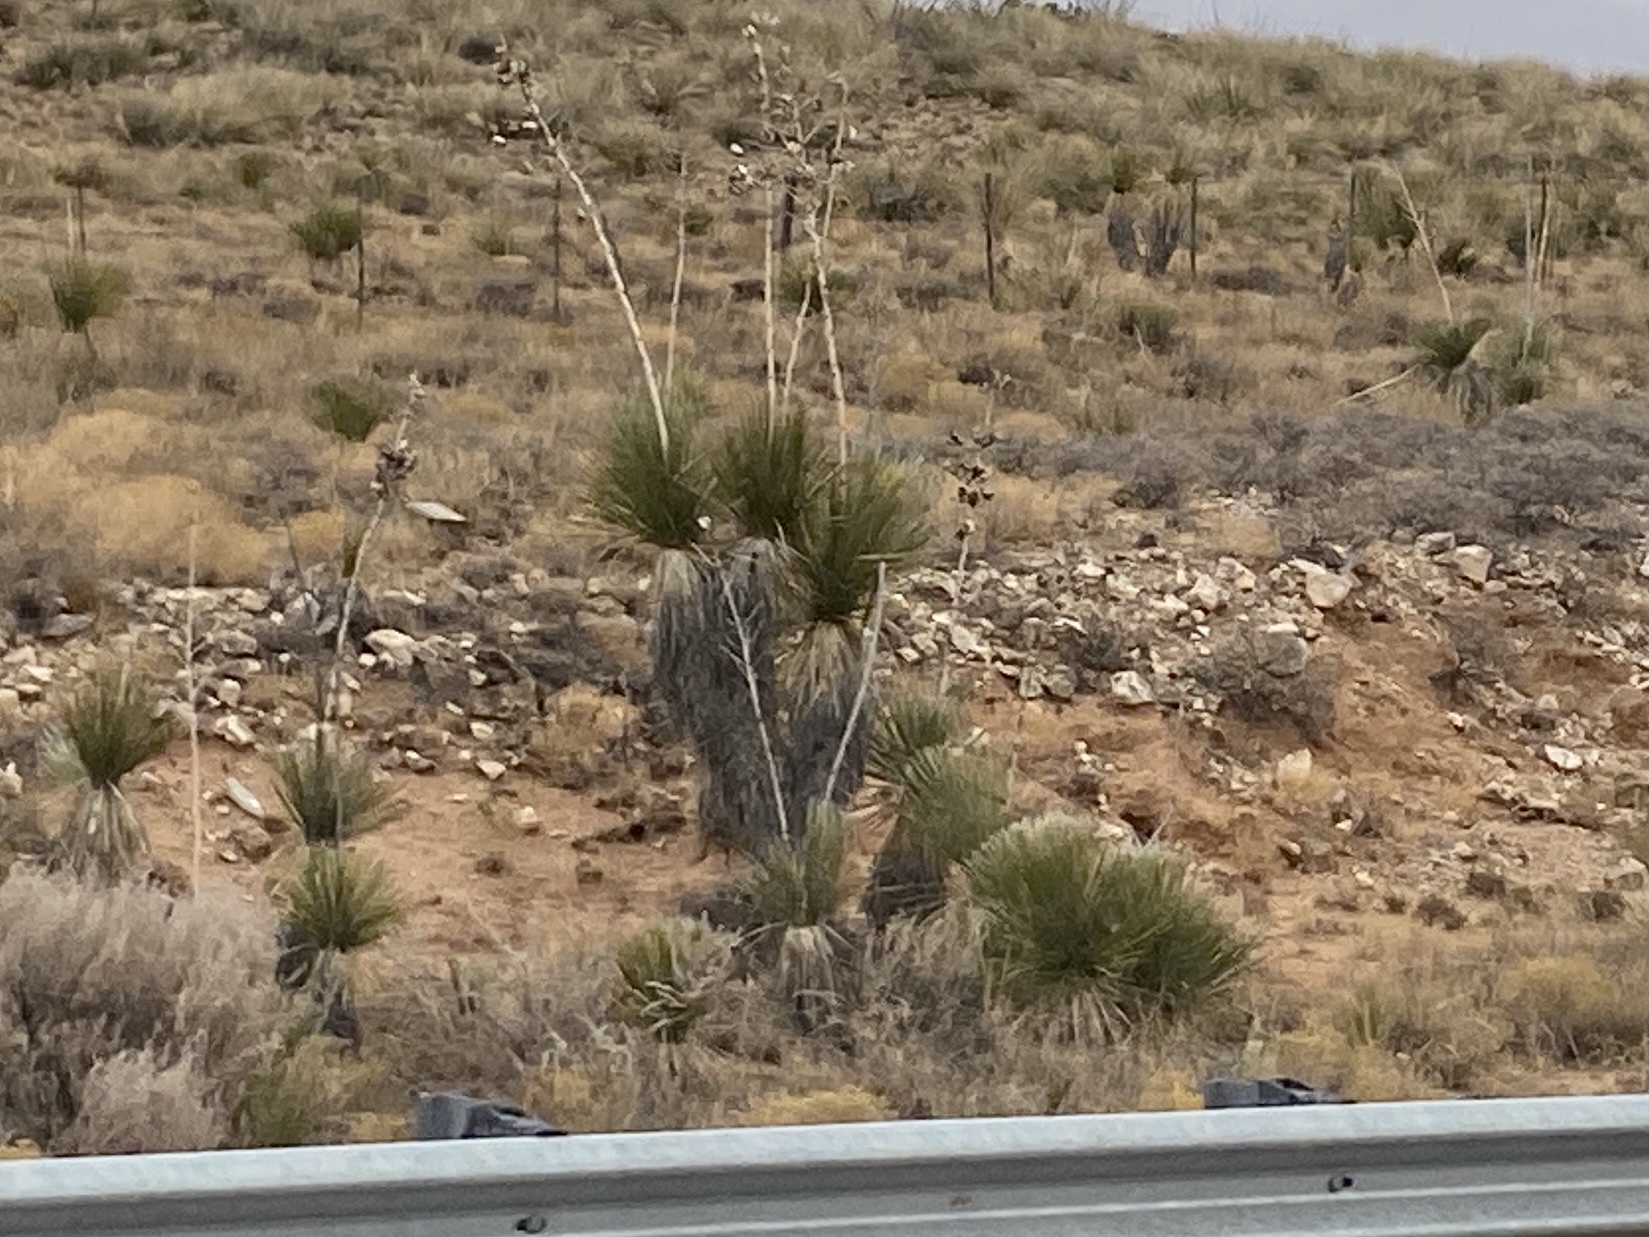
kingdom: Plantae
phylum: Tracheophyta
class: Liliopsida
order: Asparagales
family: Asparagaceae
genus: Yucca
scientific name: Yucca elata
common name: Palmella
